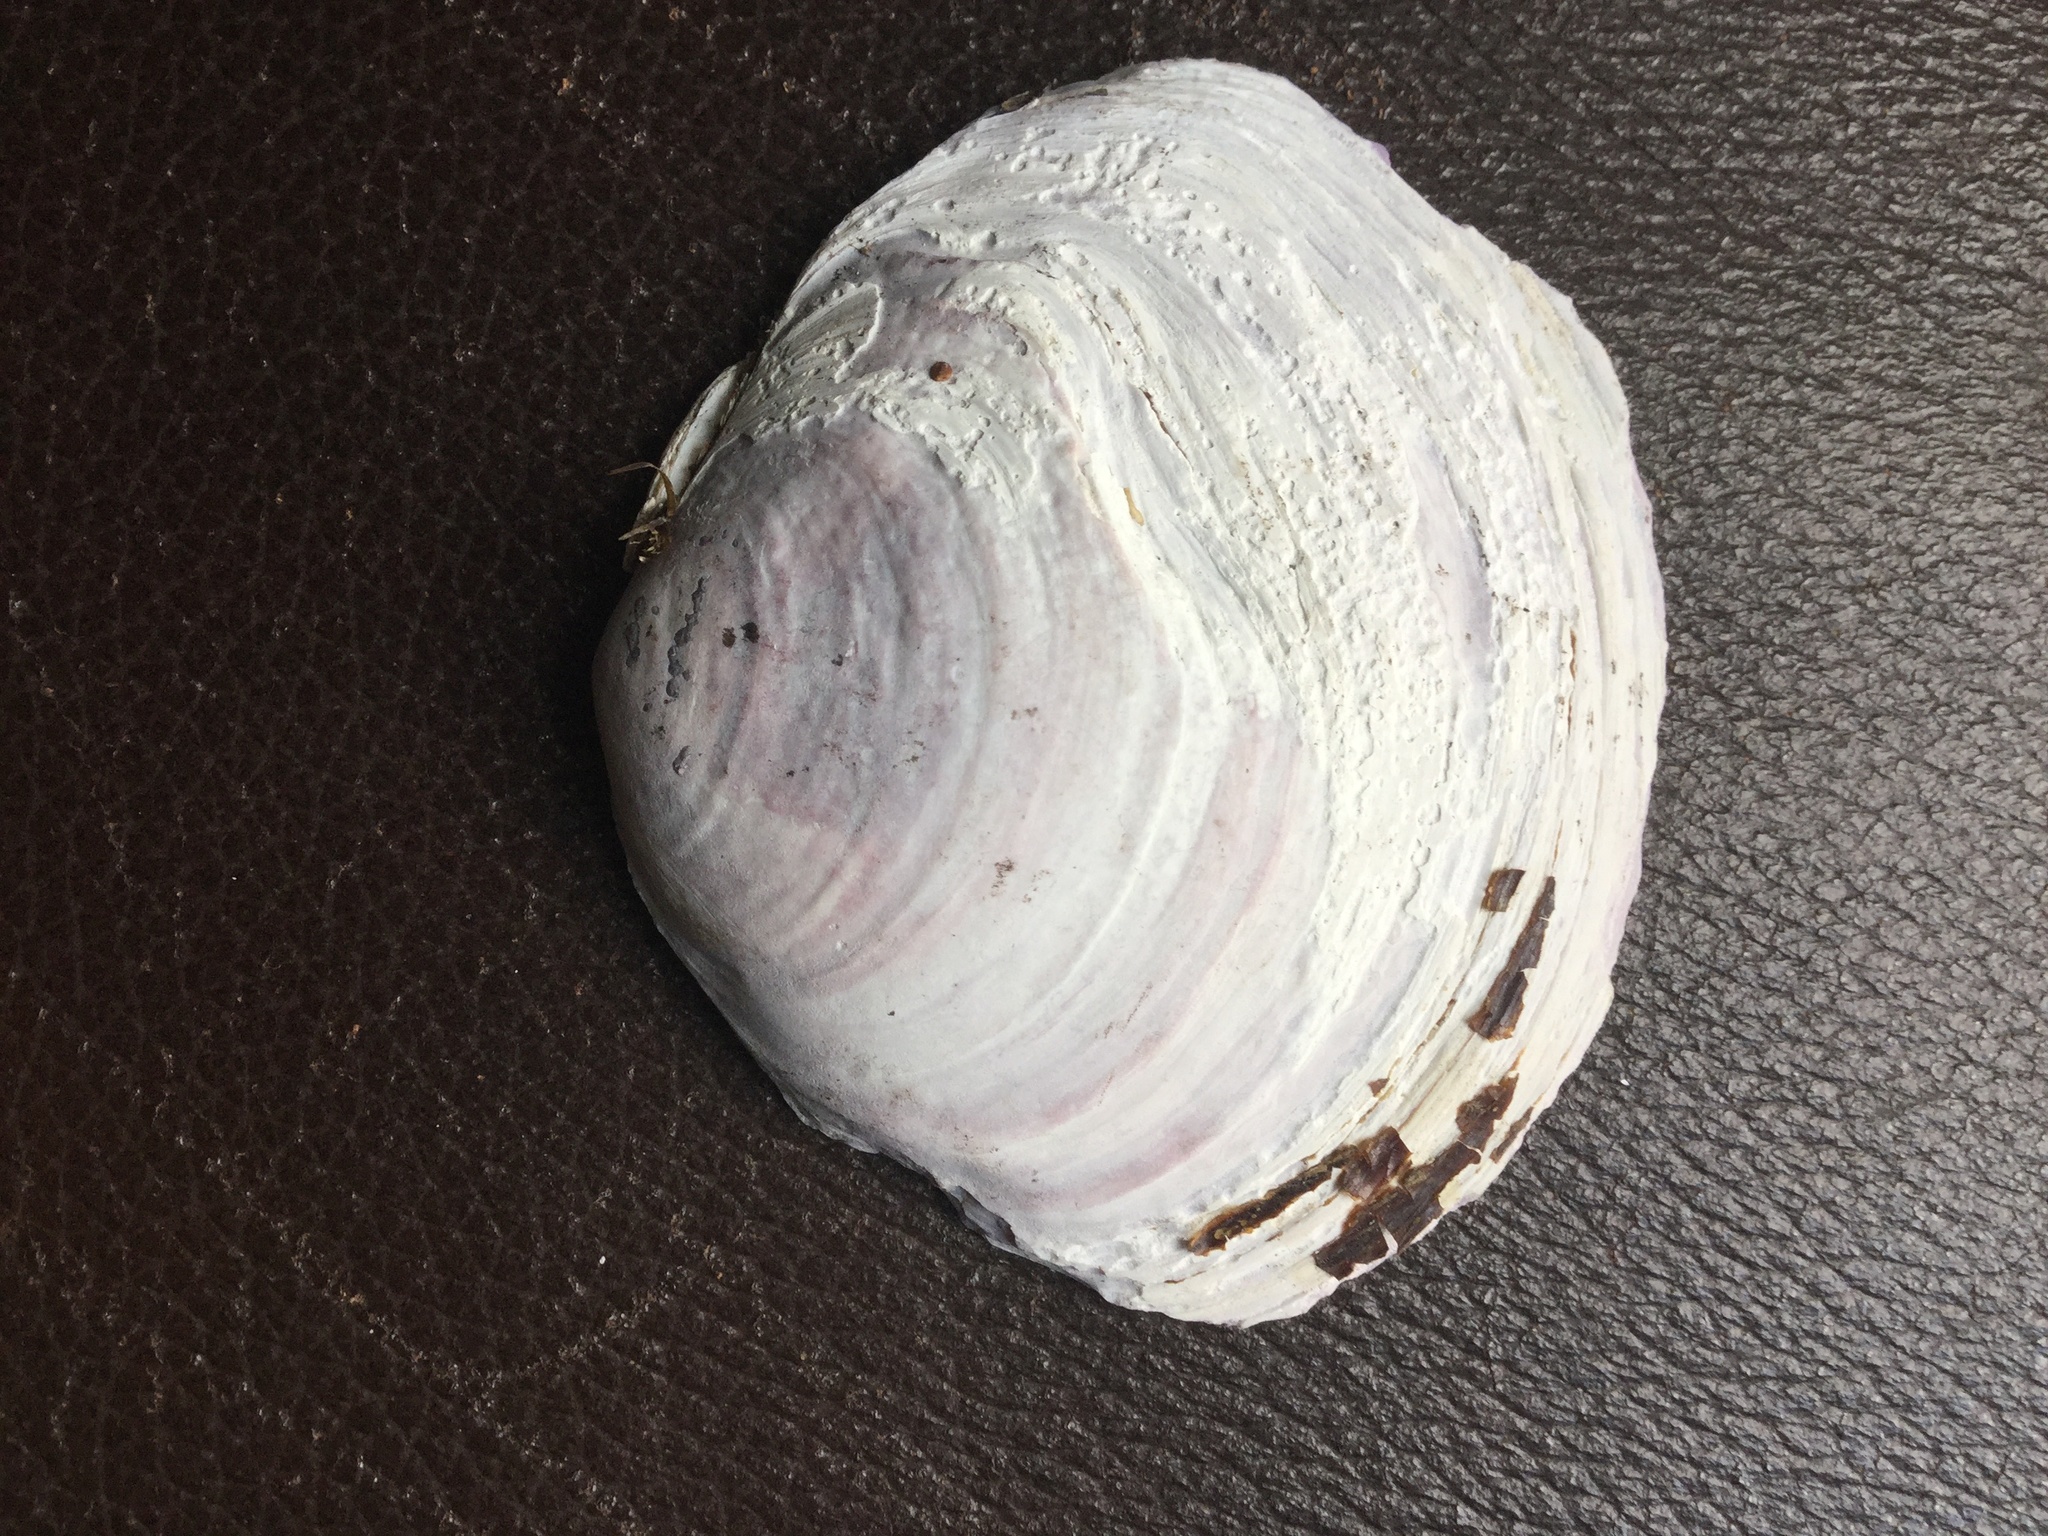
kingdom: Animalia
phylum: Mollusca
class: Bivalvia
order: Cardiida
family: Psammobiidae
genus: Nuttallia
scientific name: Nuttallia obscurata
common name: Purple mahogany-clam
